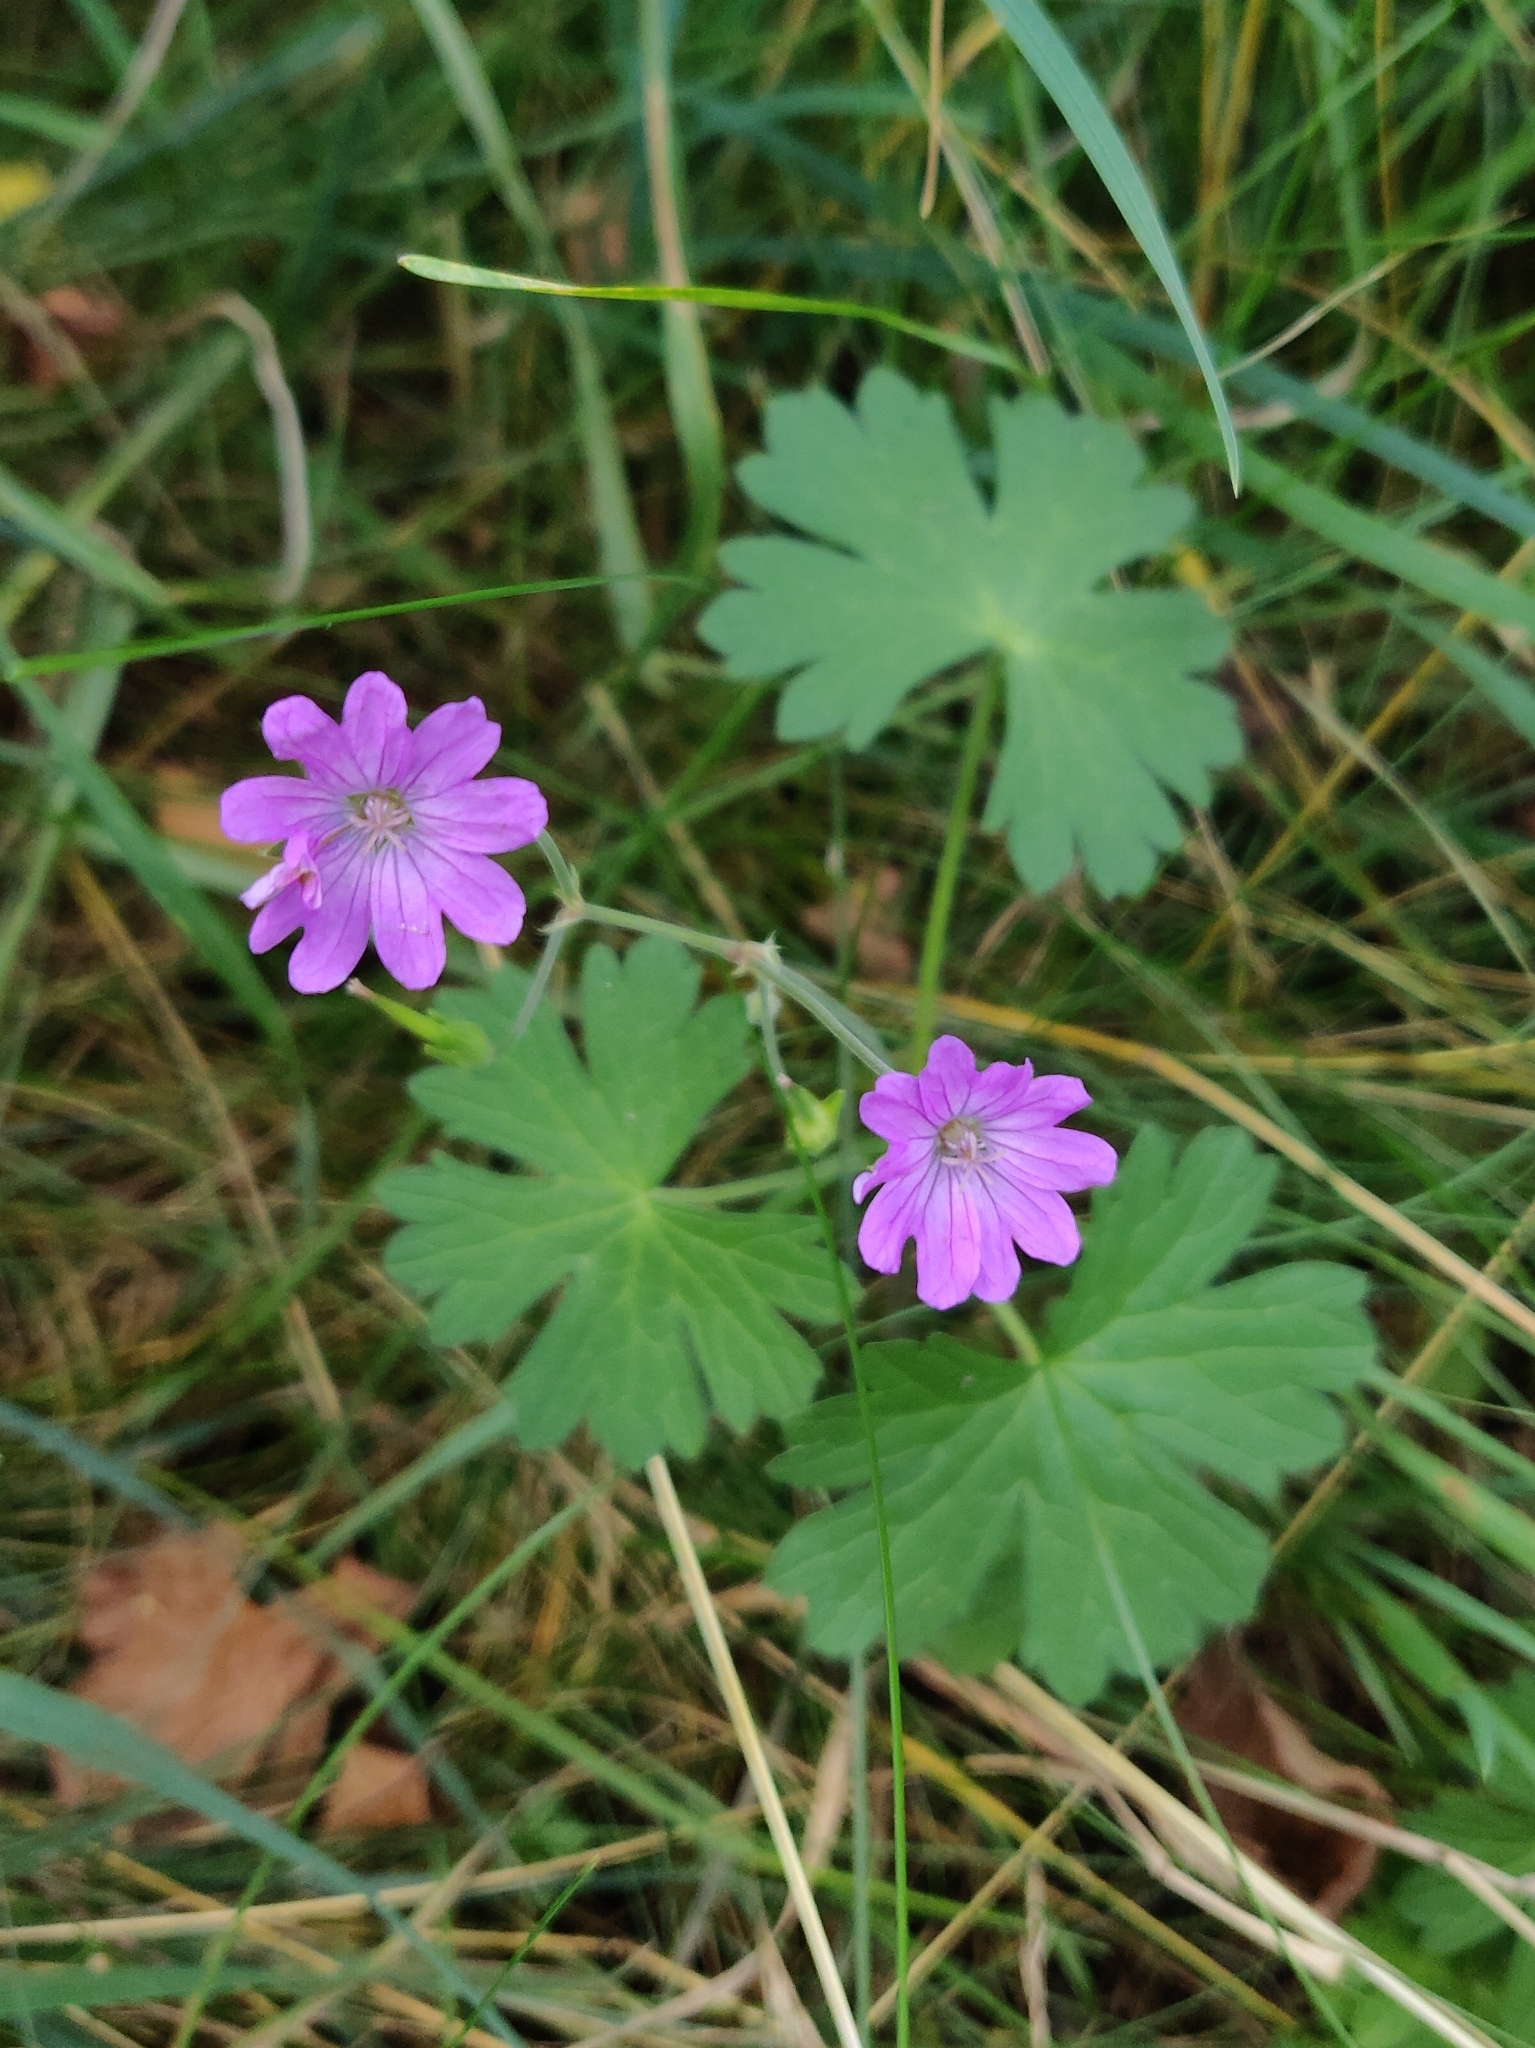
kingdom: Plantae
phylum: Tracheophyta
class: Magnoliopsida
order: Geraniales
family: Geraniaceae
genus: Geranium
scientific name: Geranium pyrenaicum
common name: Hedgerow crane's-bill
